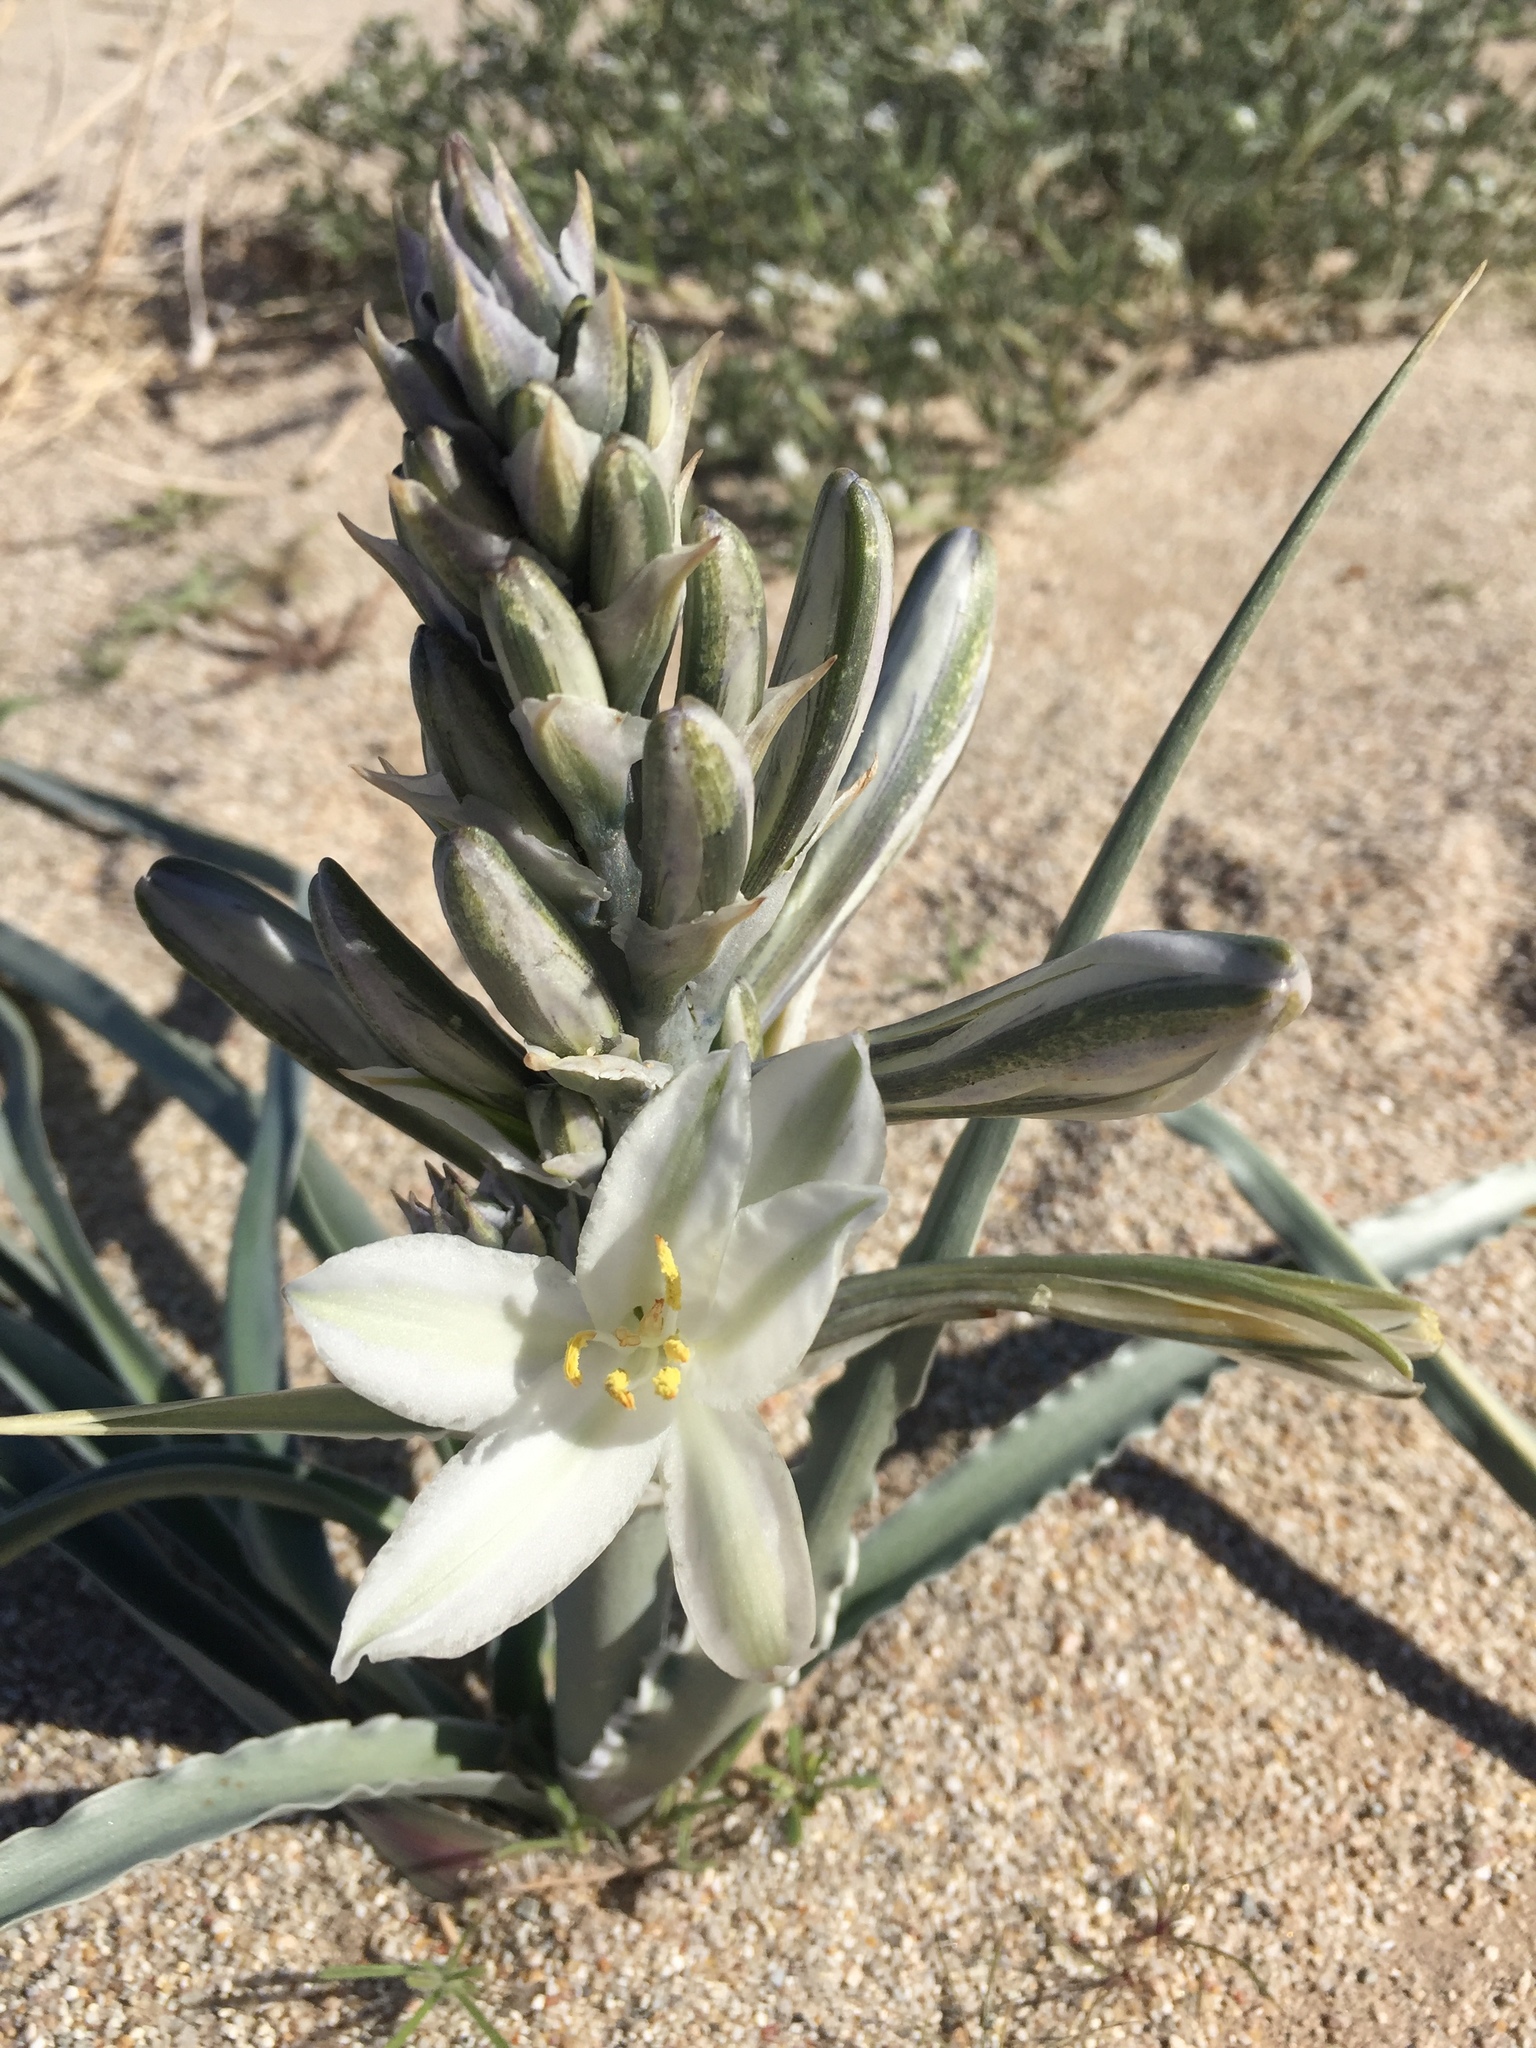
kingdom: Plantae
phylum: Tracheophyta
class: Liliopsida
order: Asparagales
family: Asparagaceae
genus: Hesperocallis
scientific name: Hesperocallis undulata
